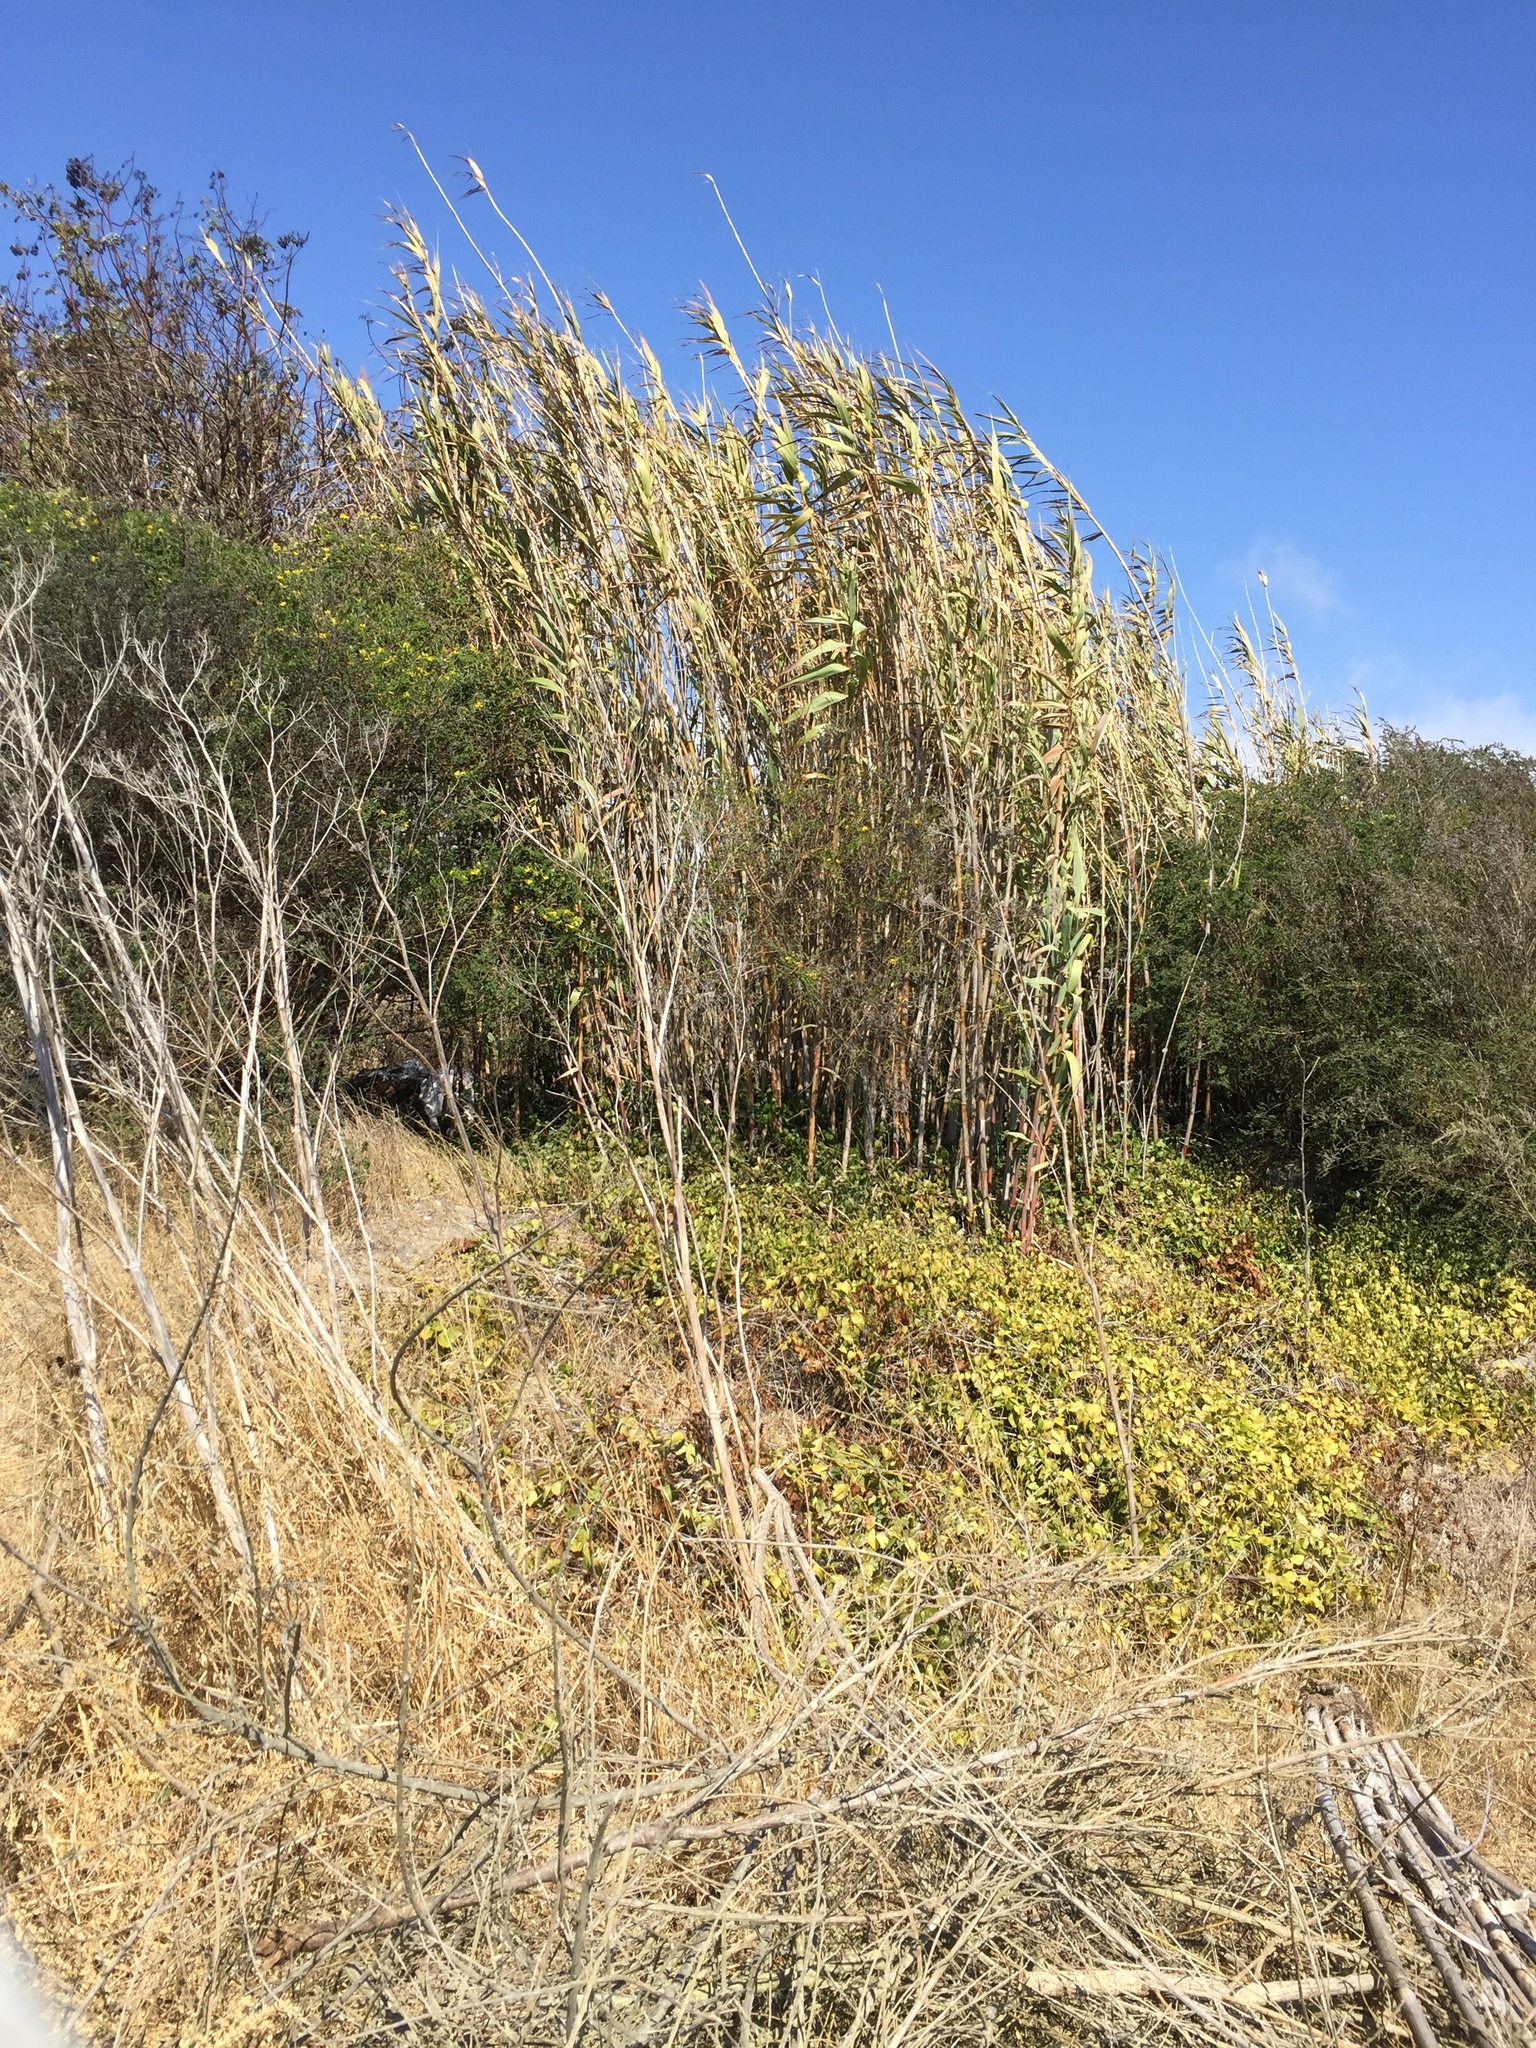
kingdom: Plantae
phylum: Tracheophyta
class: Liliopsida
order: Poales
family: Poaceae
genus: Arundo
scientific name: Arundo donax
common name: Giant reed
